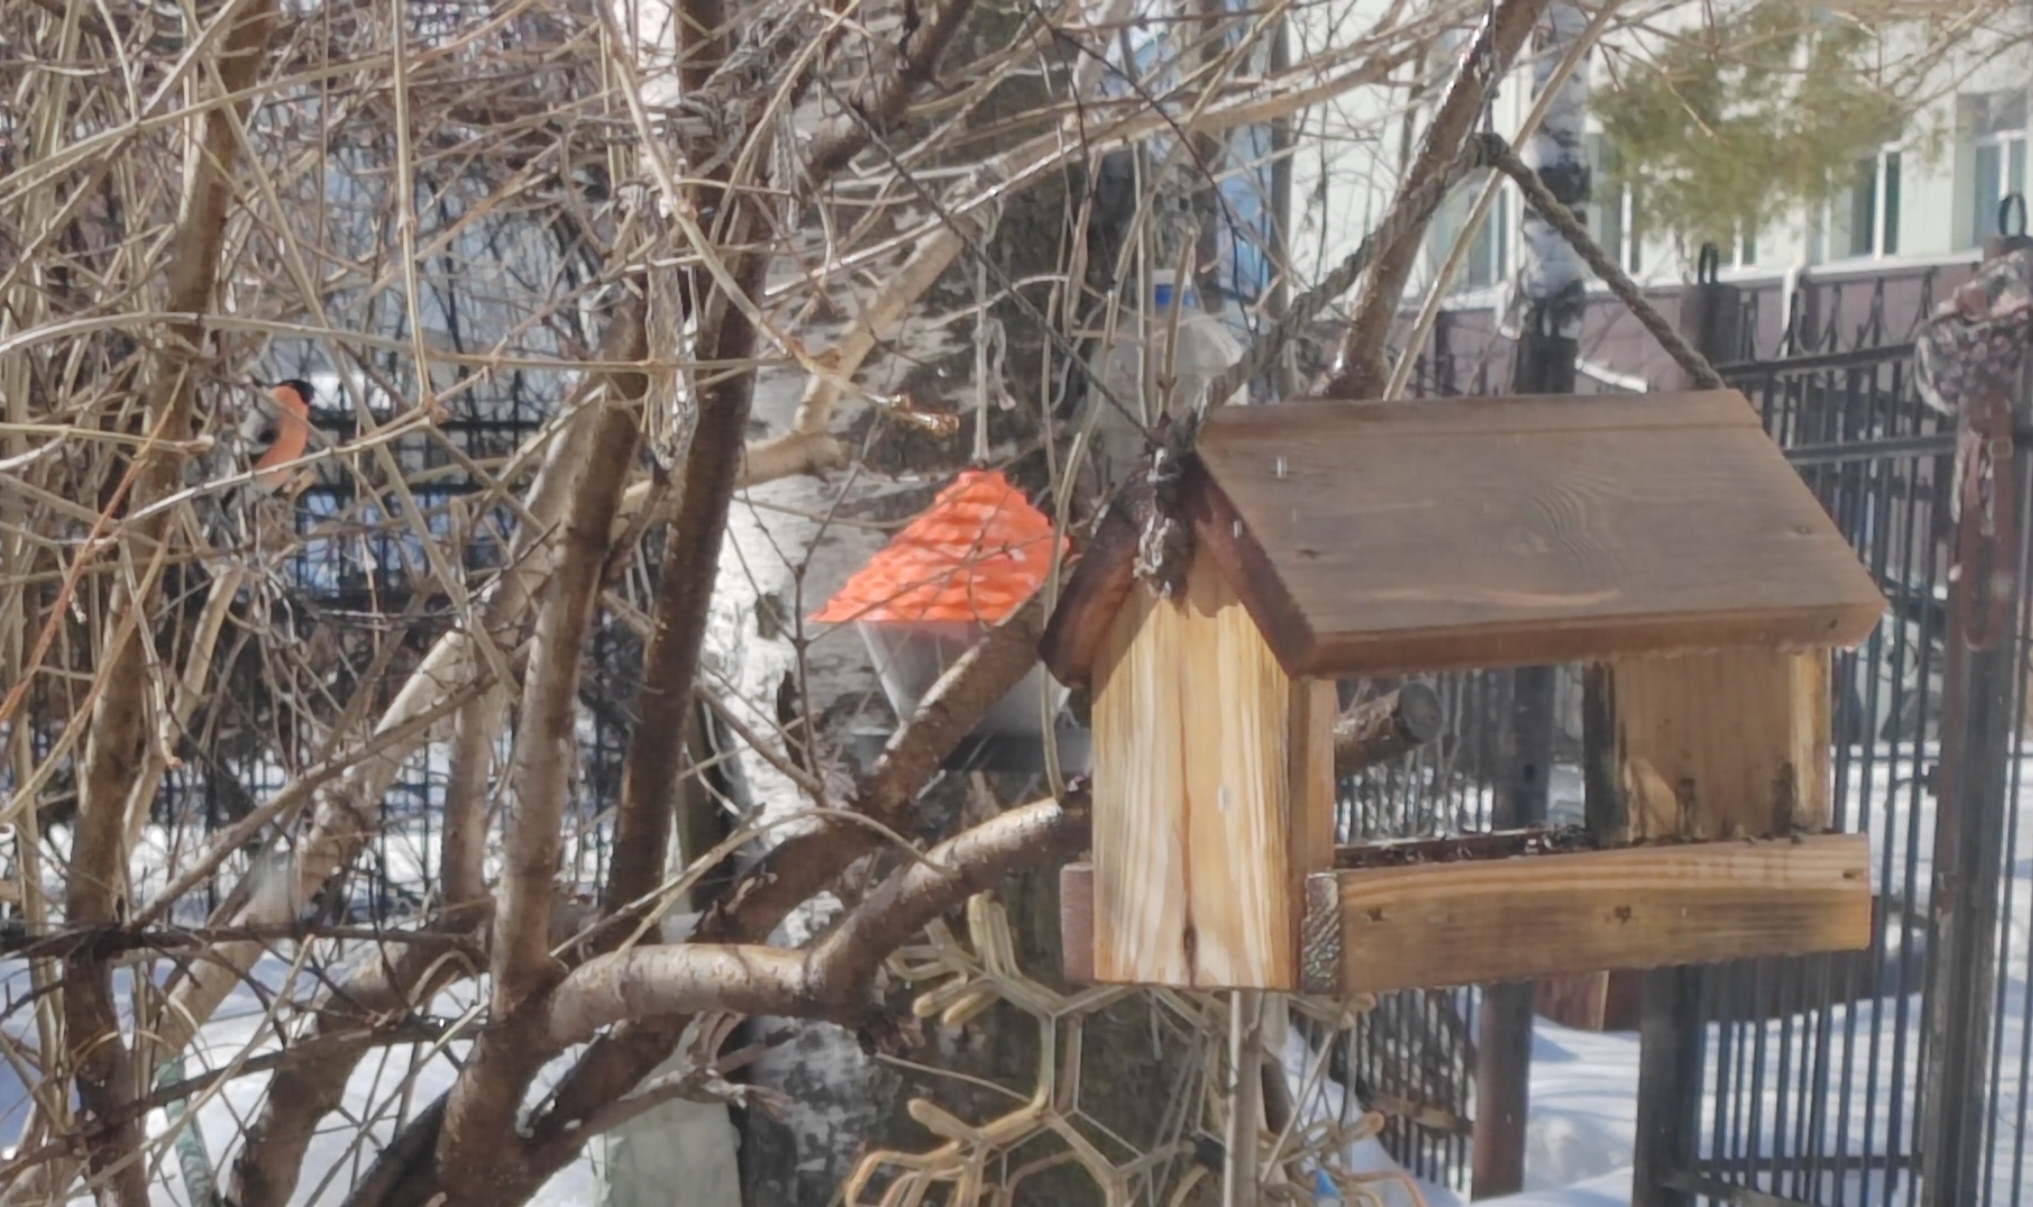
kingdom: Animalia
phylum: Chordata
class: Aves
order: Passeriformes
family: Fringillidae
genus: Pyrrhula
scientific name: Pyrrhula pyrrhula
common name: Eurasian bullfinch
